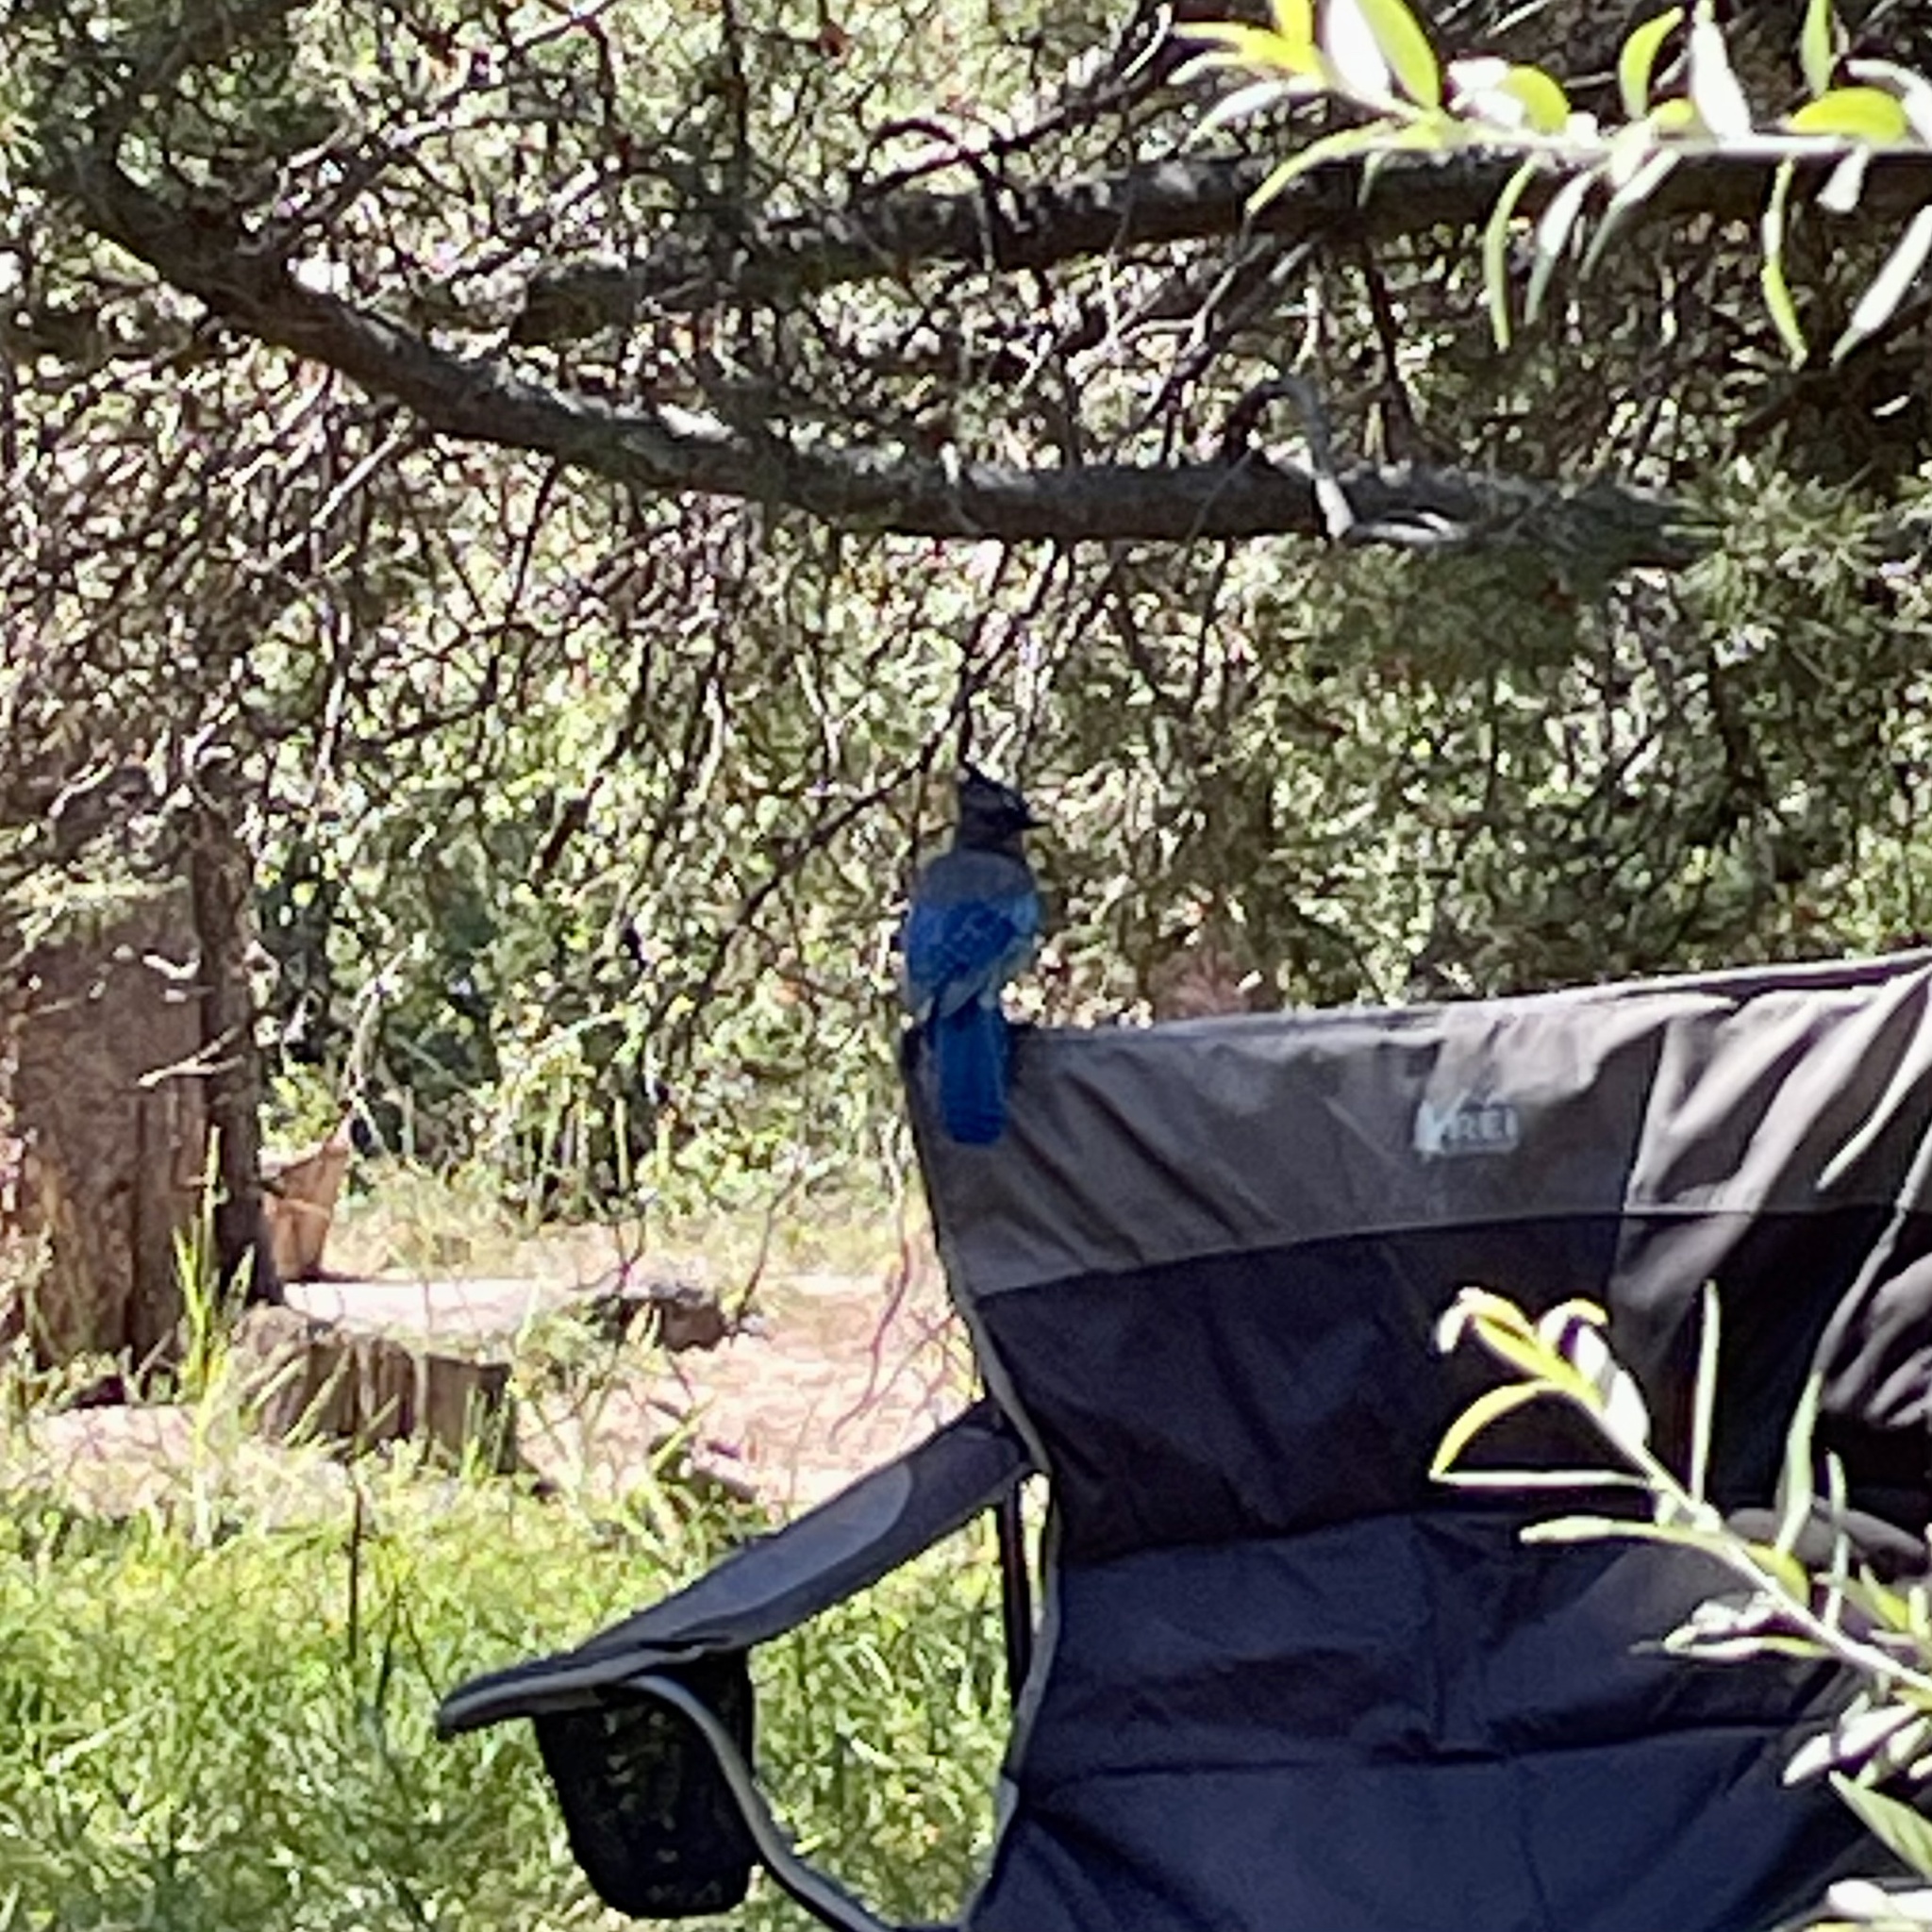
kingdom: Animalia
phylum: Chordata
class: Aves
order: Passeriformes
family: Corvidae
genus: Cyanocitta
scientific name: Cyanocitta stelleri
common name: Steller's jay
